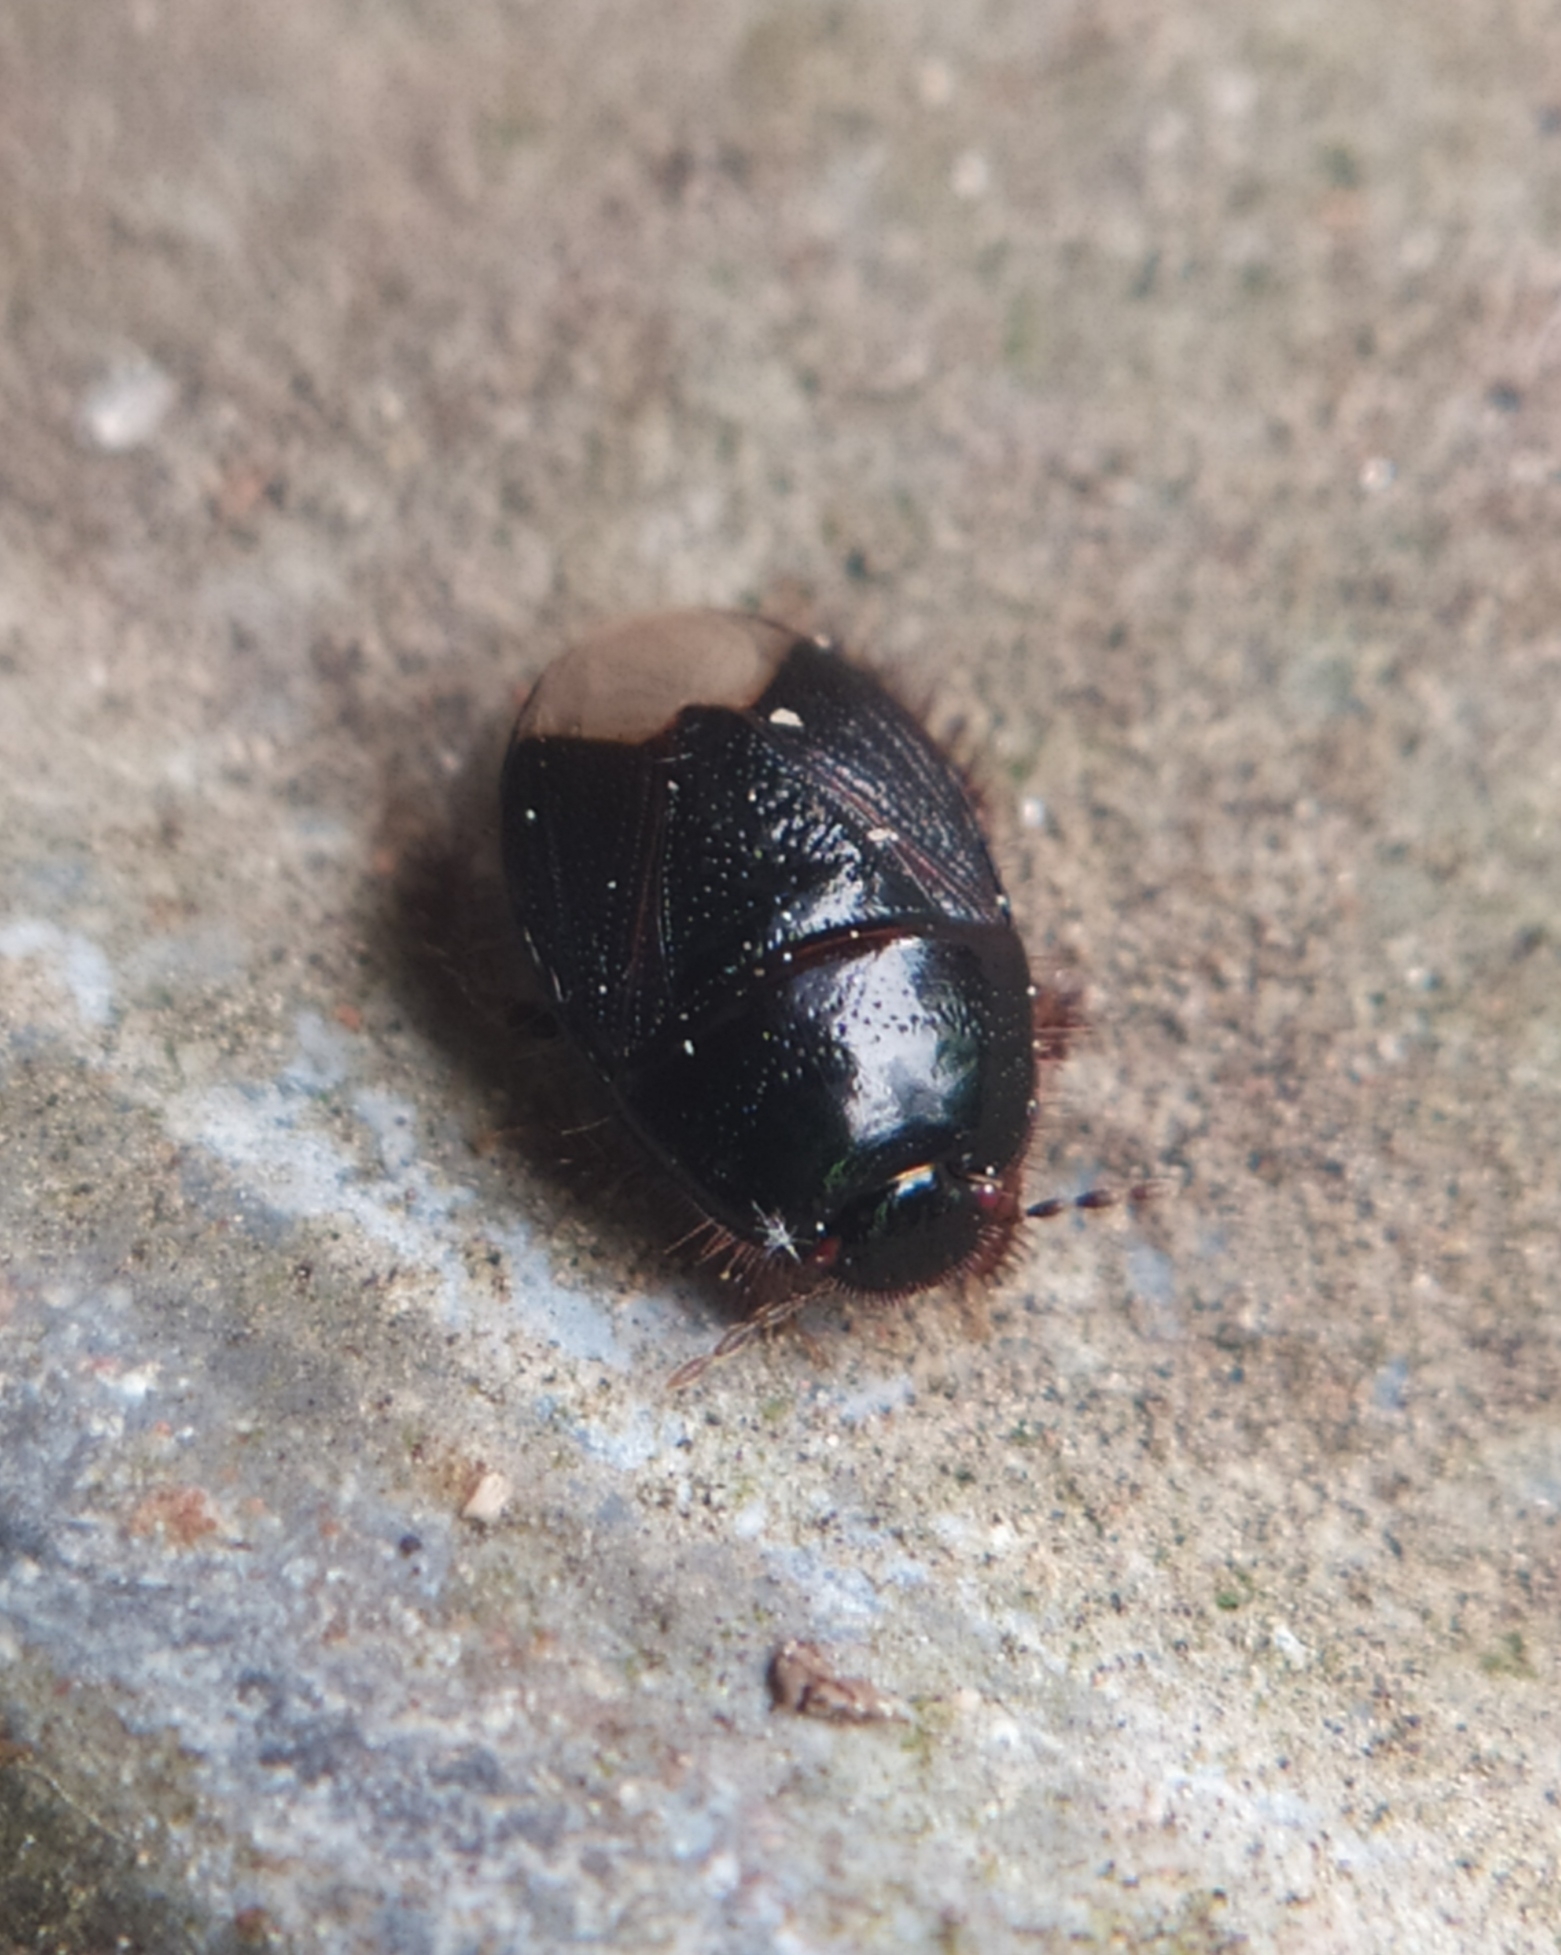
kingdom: Animalia
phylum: Arthropoda
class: Insecta
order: Hemiptera
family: Cydnidae
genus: Microporus
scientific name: Microporus nigrita
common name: Burrower bug
